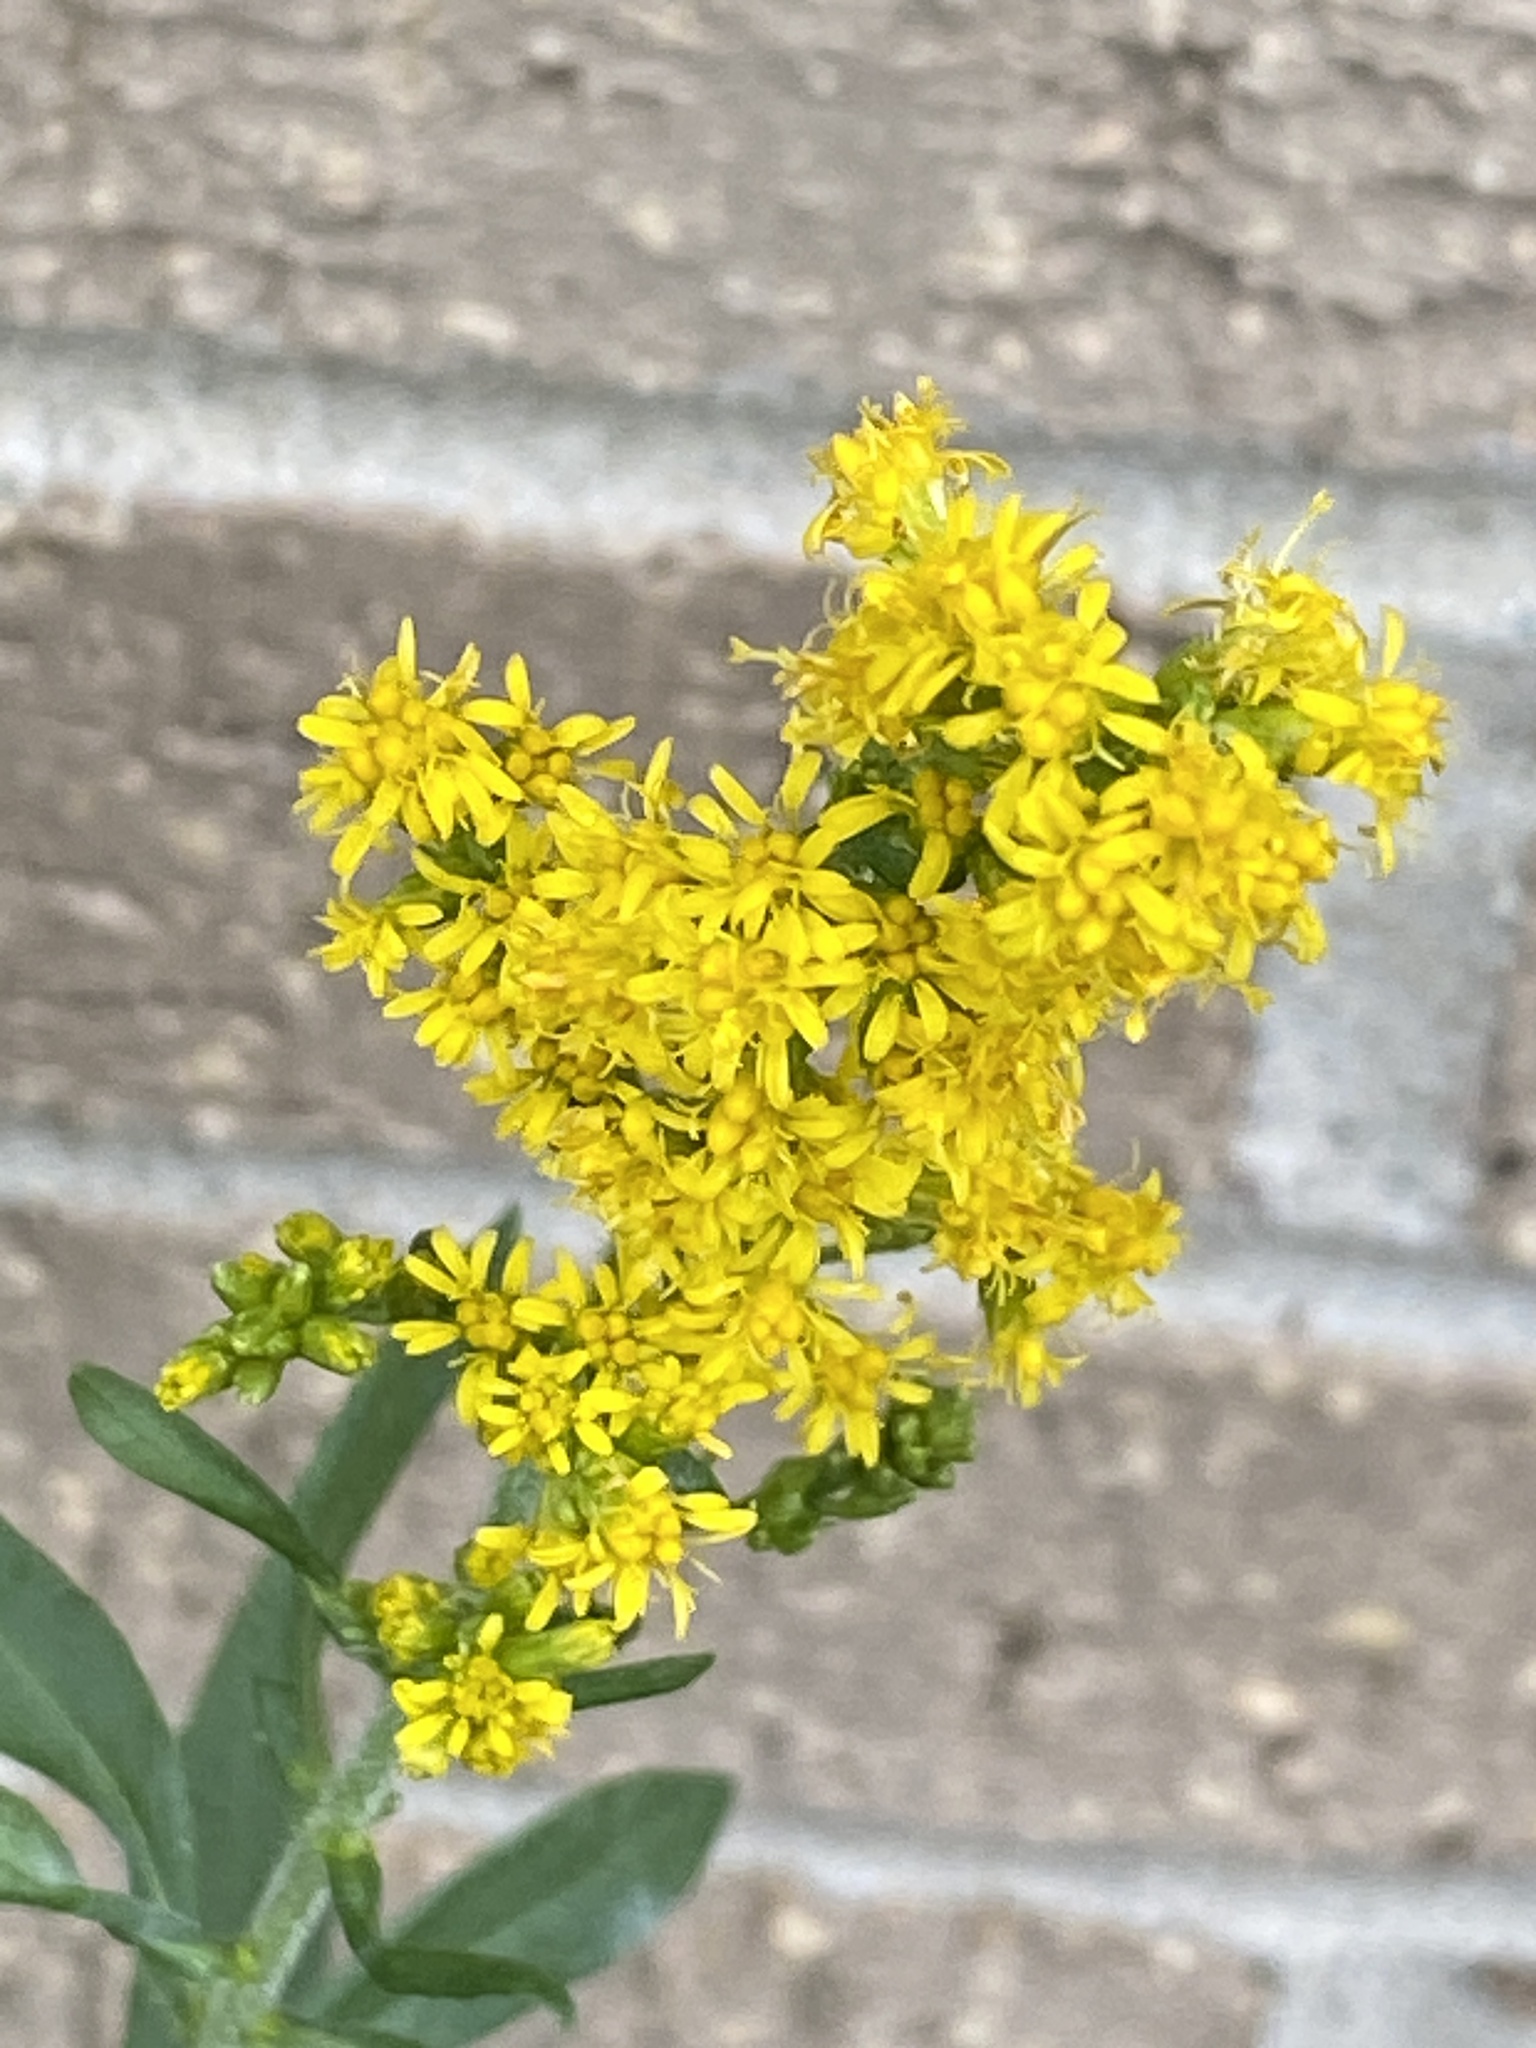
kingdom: Plantae
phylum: Tracheophyta
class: Magnoliopsida
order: Asterales
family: Asteraceae
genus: Solidago
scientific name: Solidago altissima
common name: Late goldenrod
